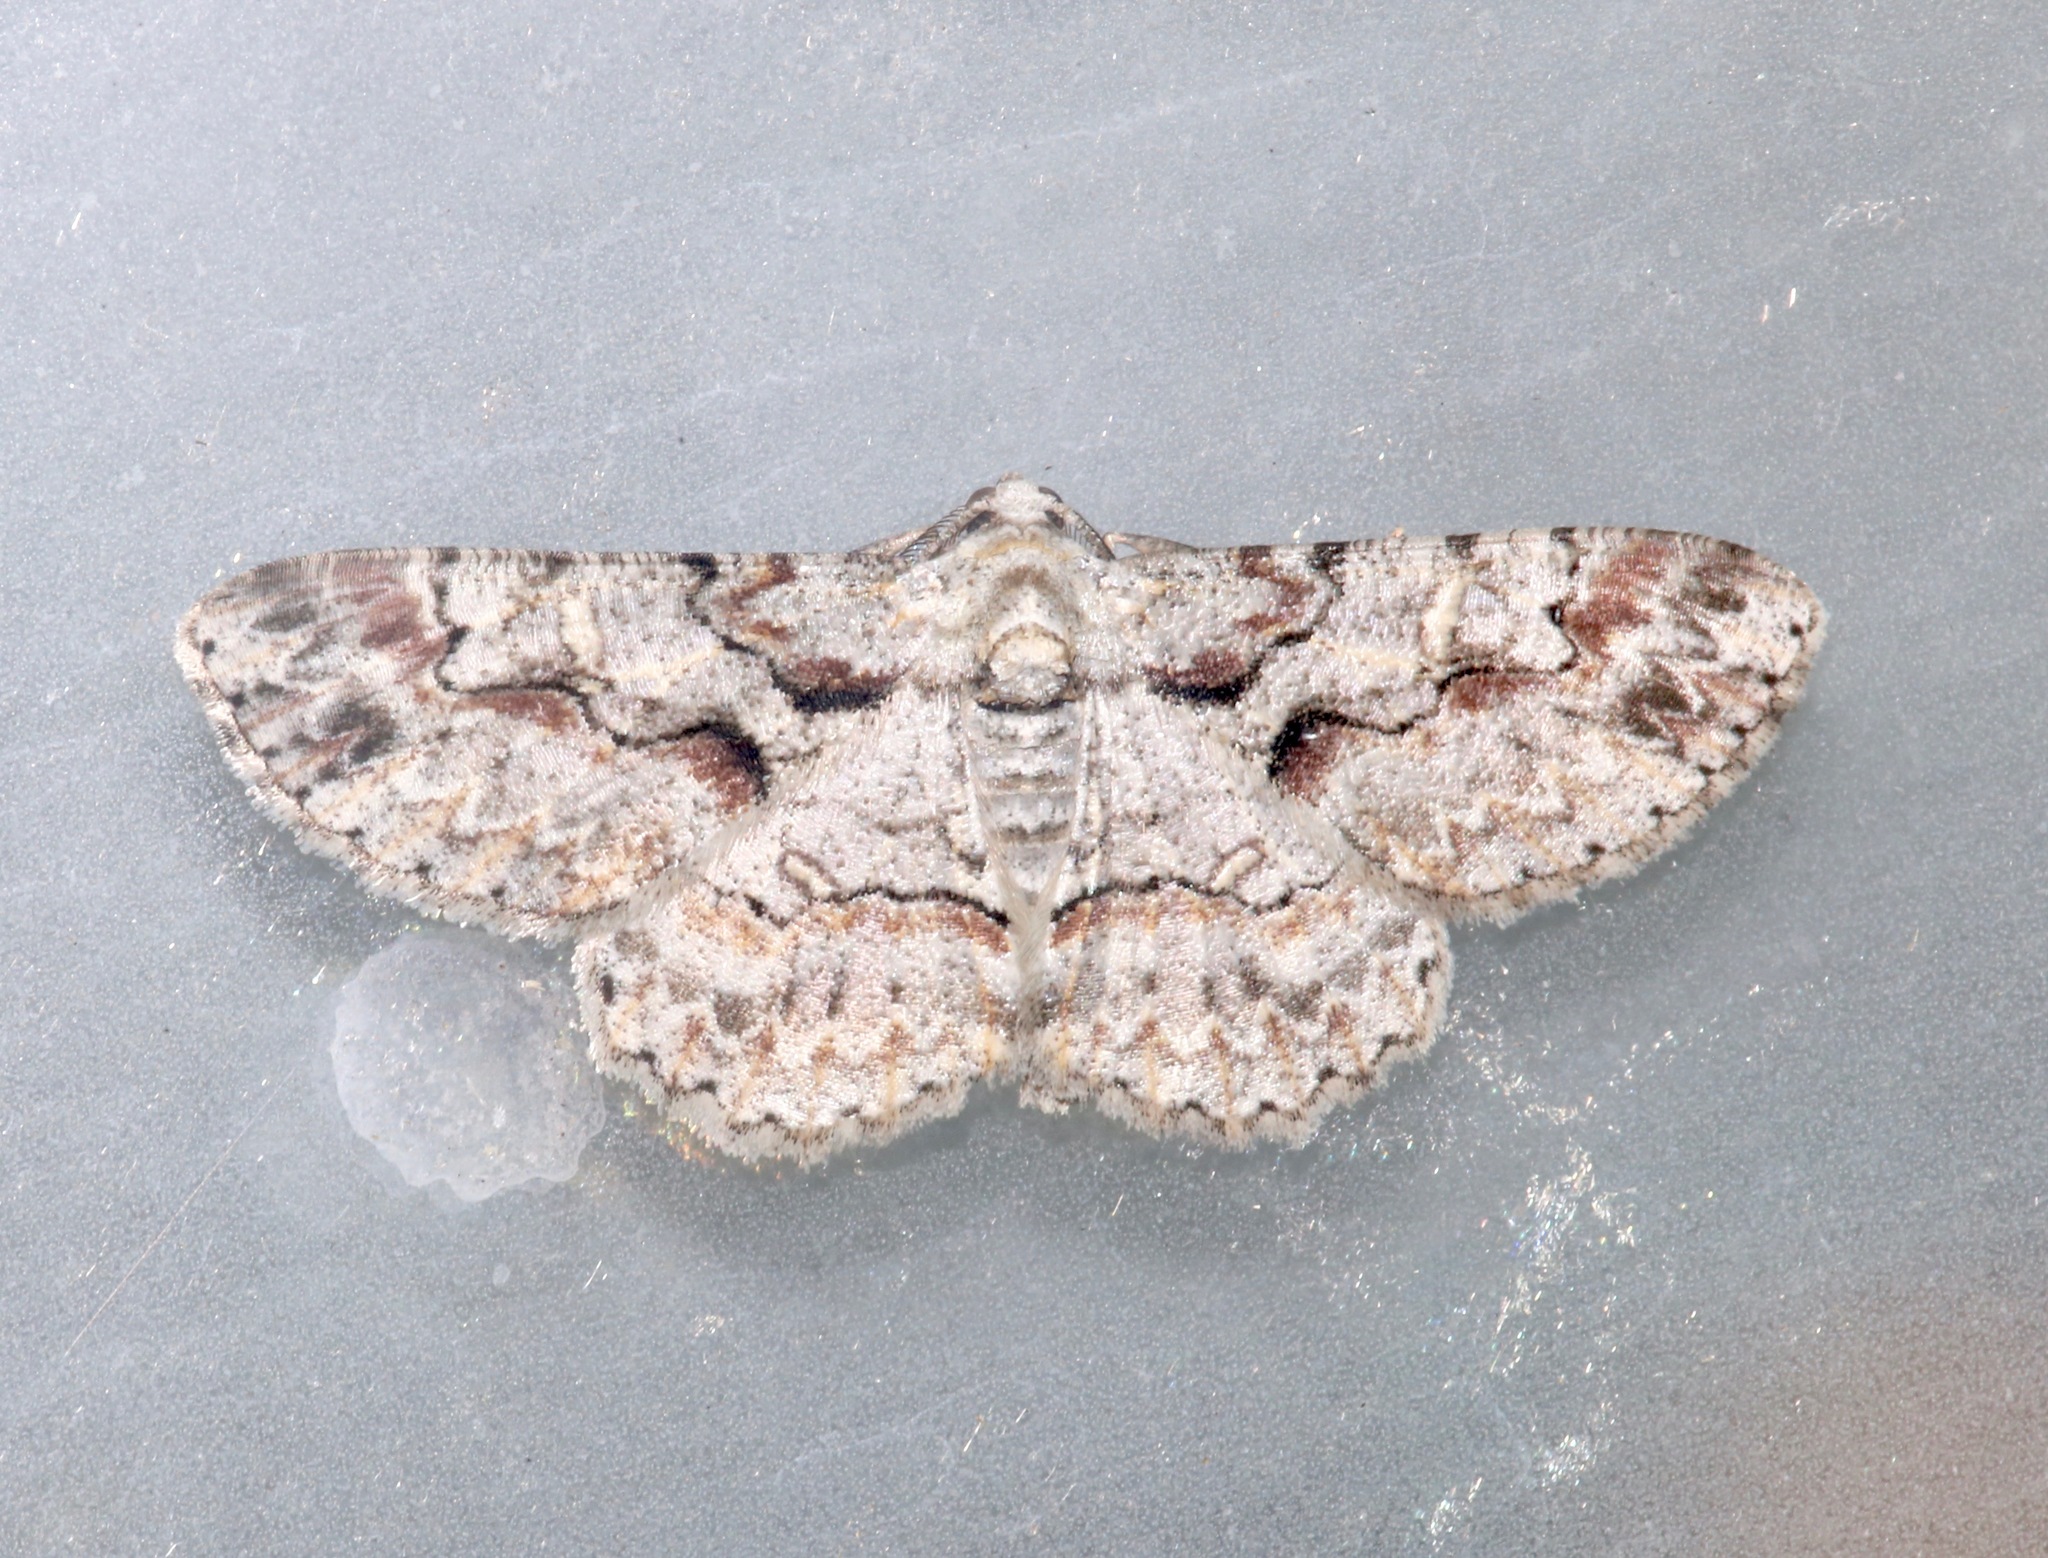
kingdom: Animalia
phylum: Arthropoda
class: Insecta
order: Lepidoptera
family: Geometridae
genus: Iridopsis
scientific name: Iridopsis defectaria
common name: Brown-shaded gray
